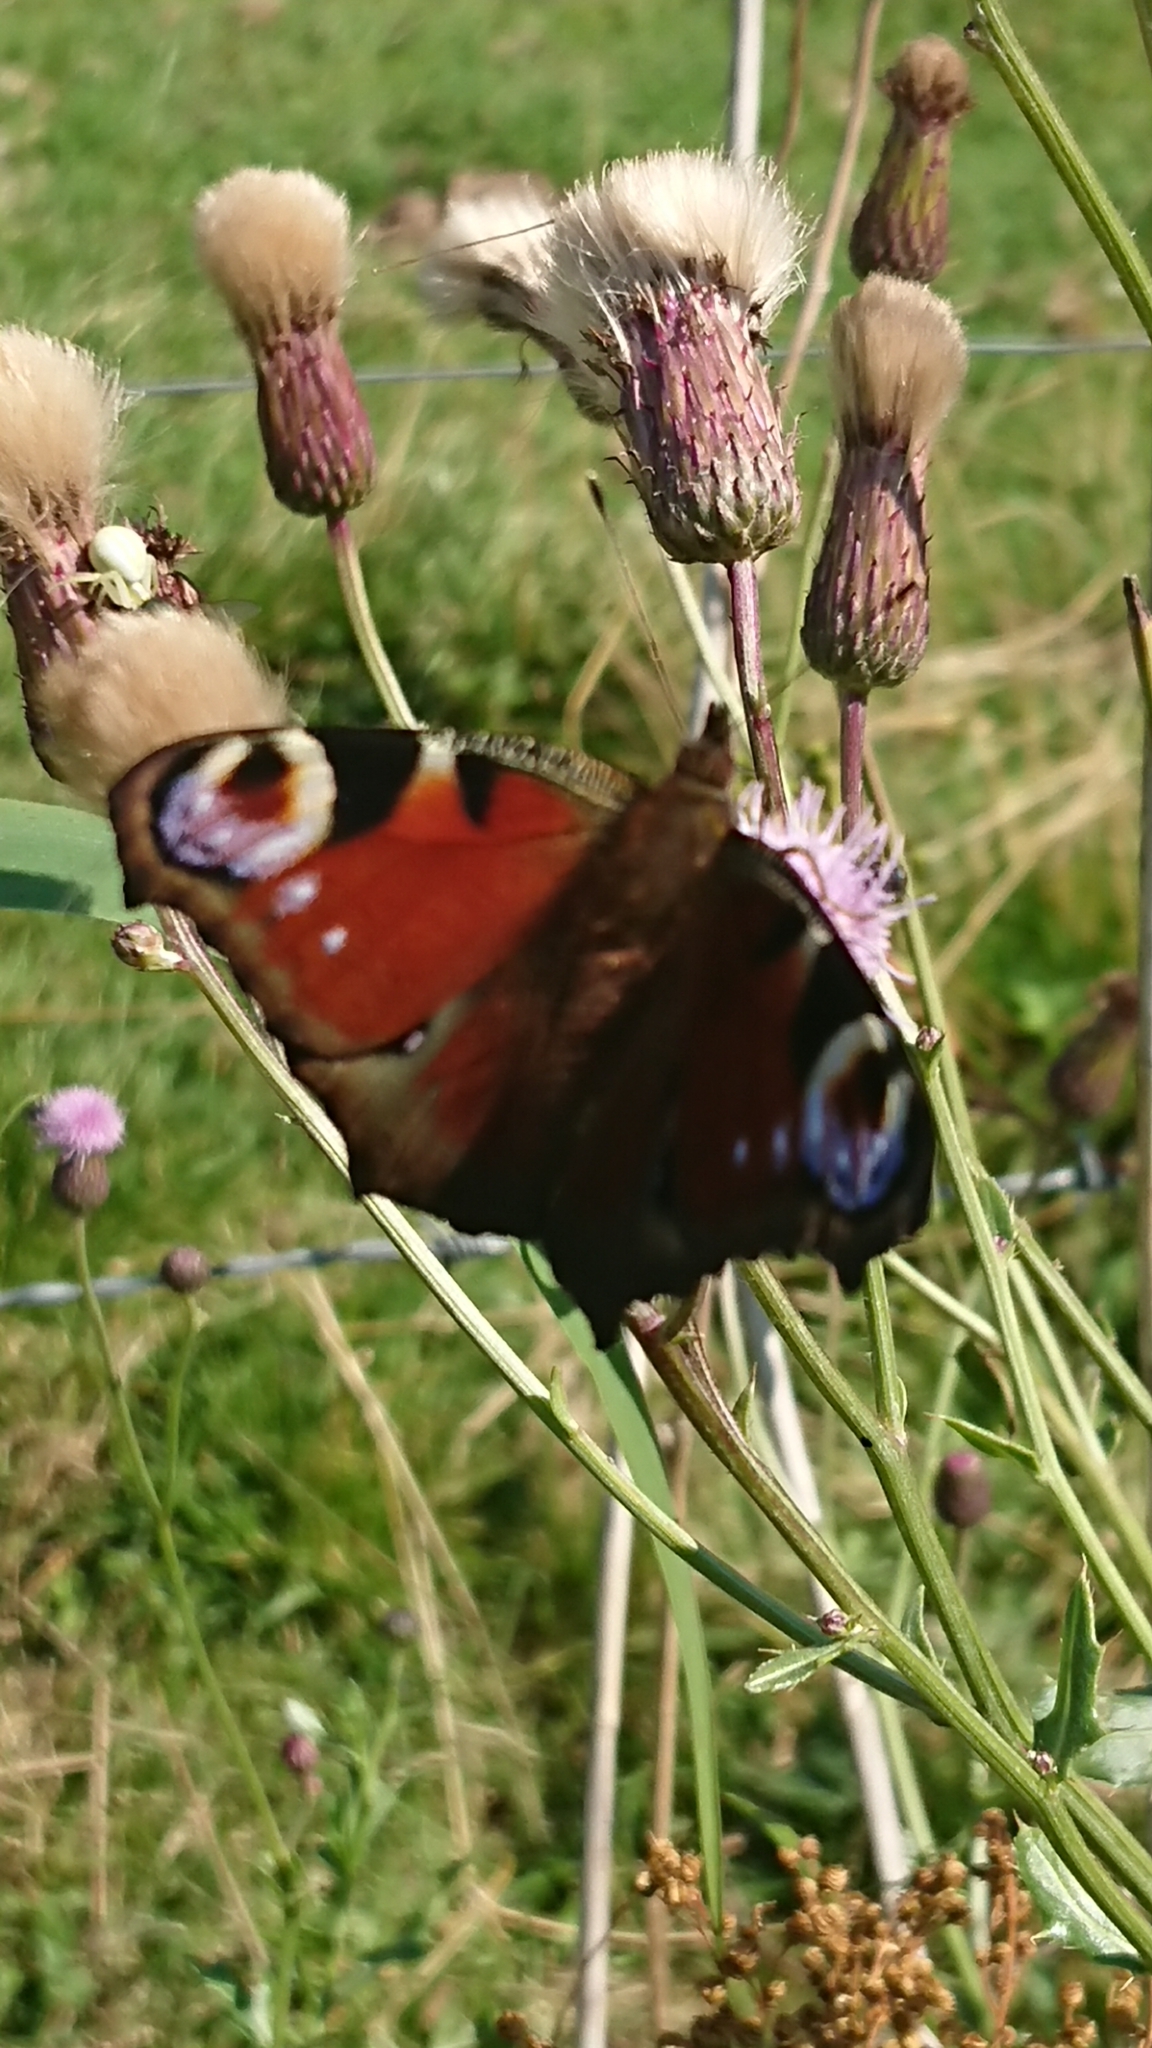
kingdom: Animalia
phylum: Arthropoda
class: Insecta
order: Lepidoptera
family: Nymphalidae
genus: Aglais
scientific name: Aglais io
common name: Peacock
